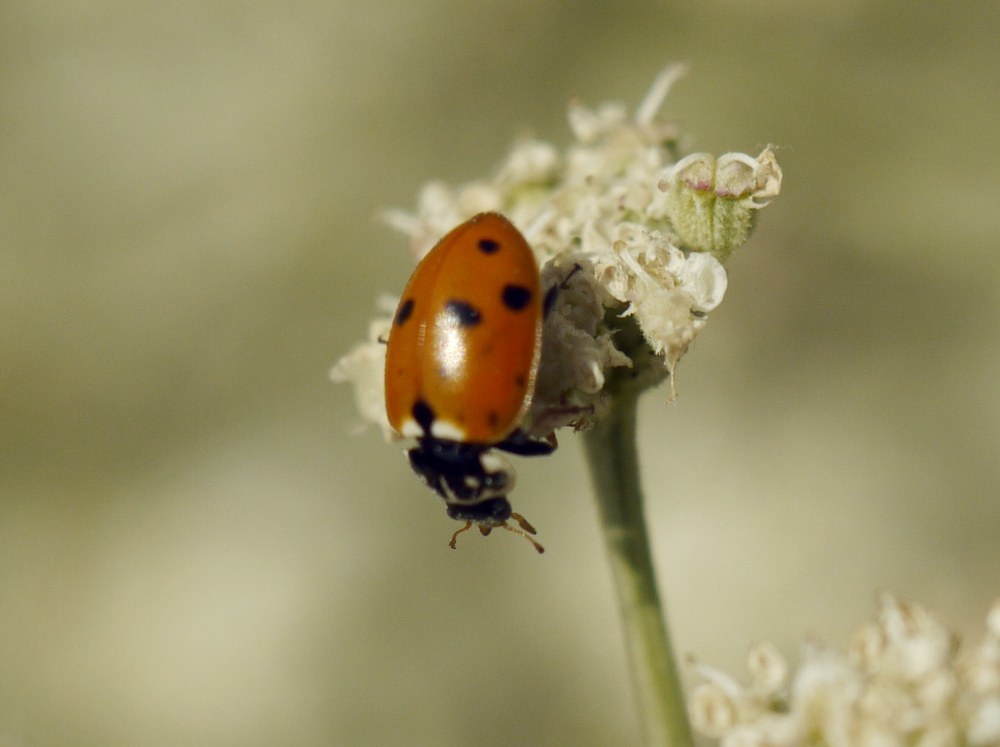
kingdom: Animalia
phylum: Arthropoda
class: Insecta
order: Coleoptera
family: Coccinellidae
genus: Hippodamia
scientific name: Hippodamia variegata
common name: Ladybird beetle
